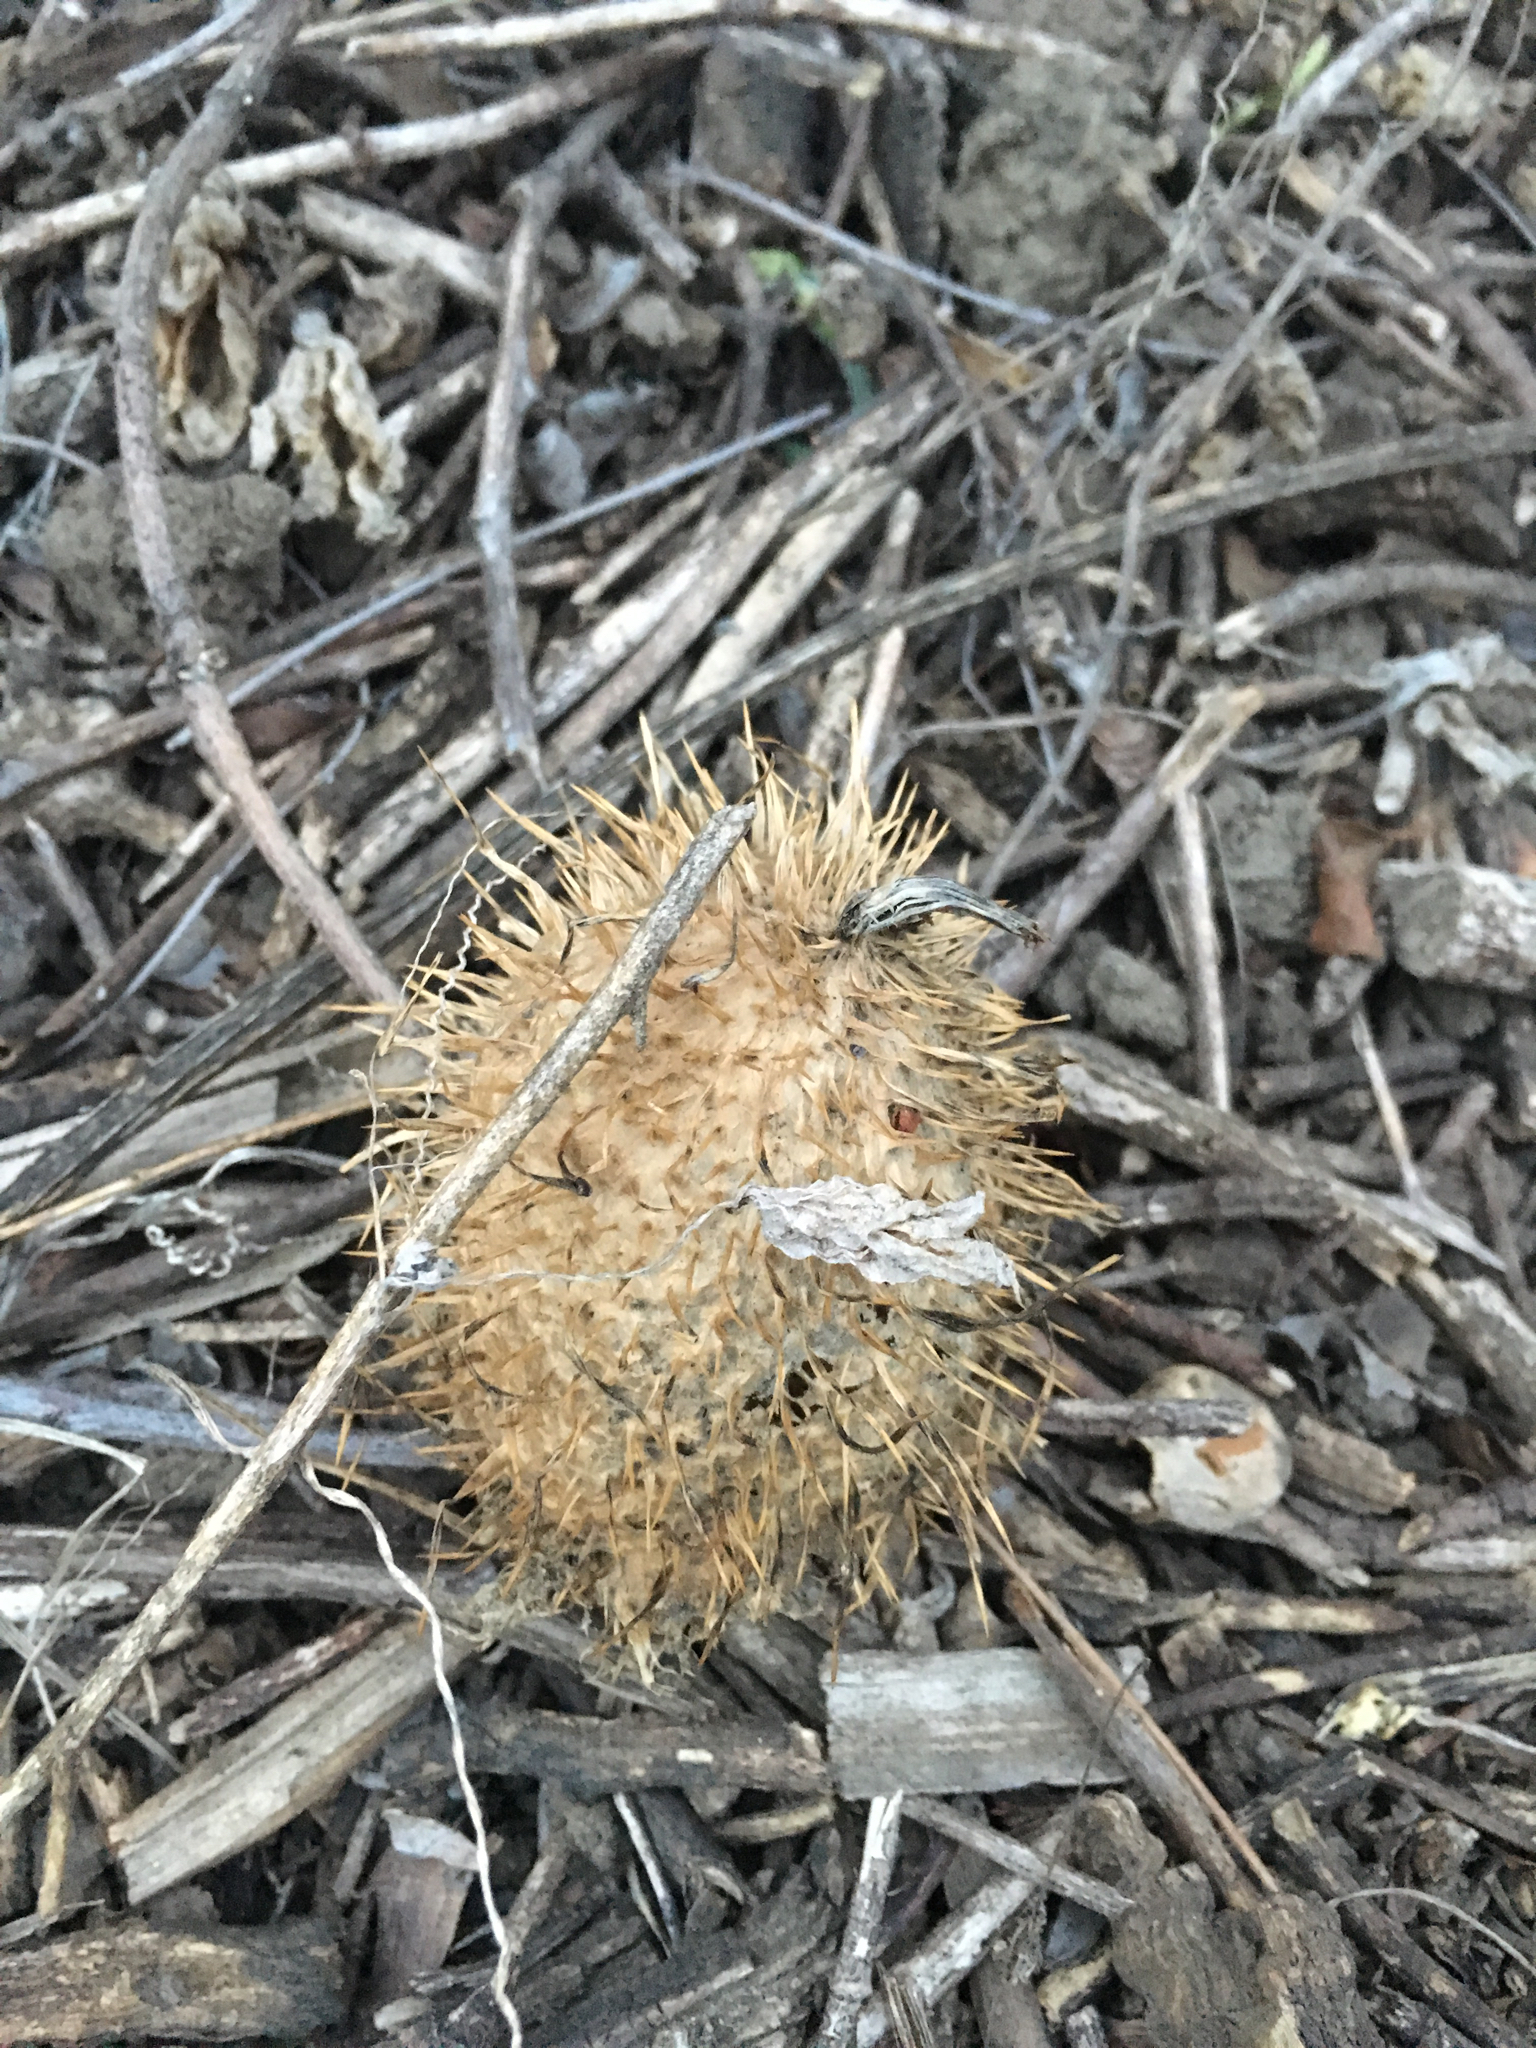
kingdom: Plantae
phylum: Tracheophyta
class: Magnoliopsida
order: Cucurbitales
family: Cucurbitaceae
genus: Marah
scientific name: Marah macrocarpa
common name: Cucamonga manroot
